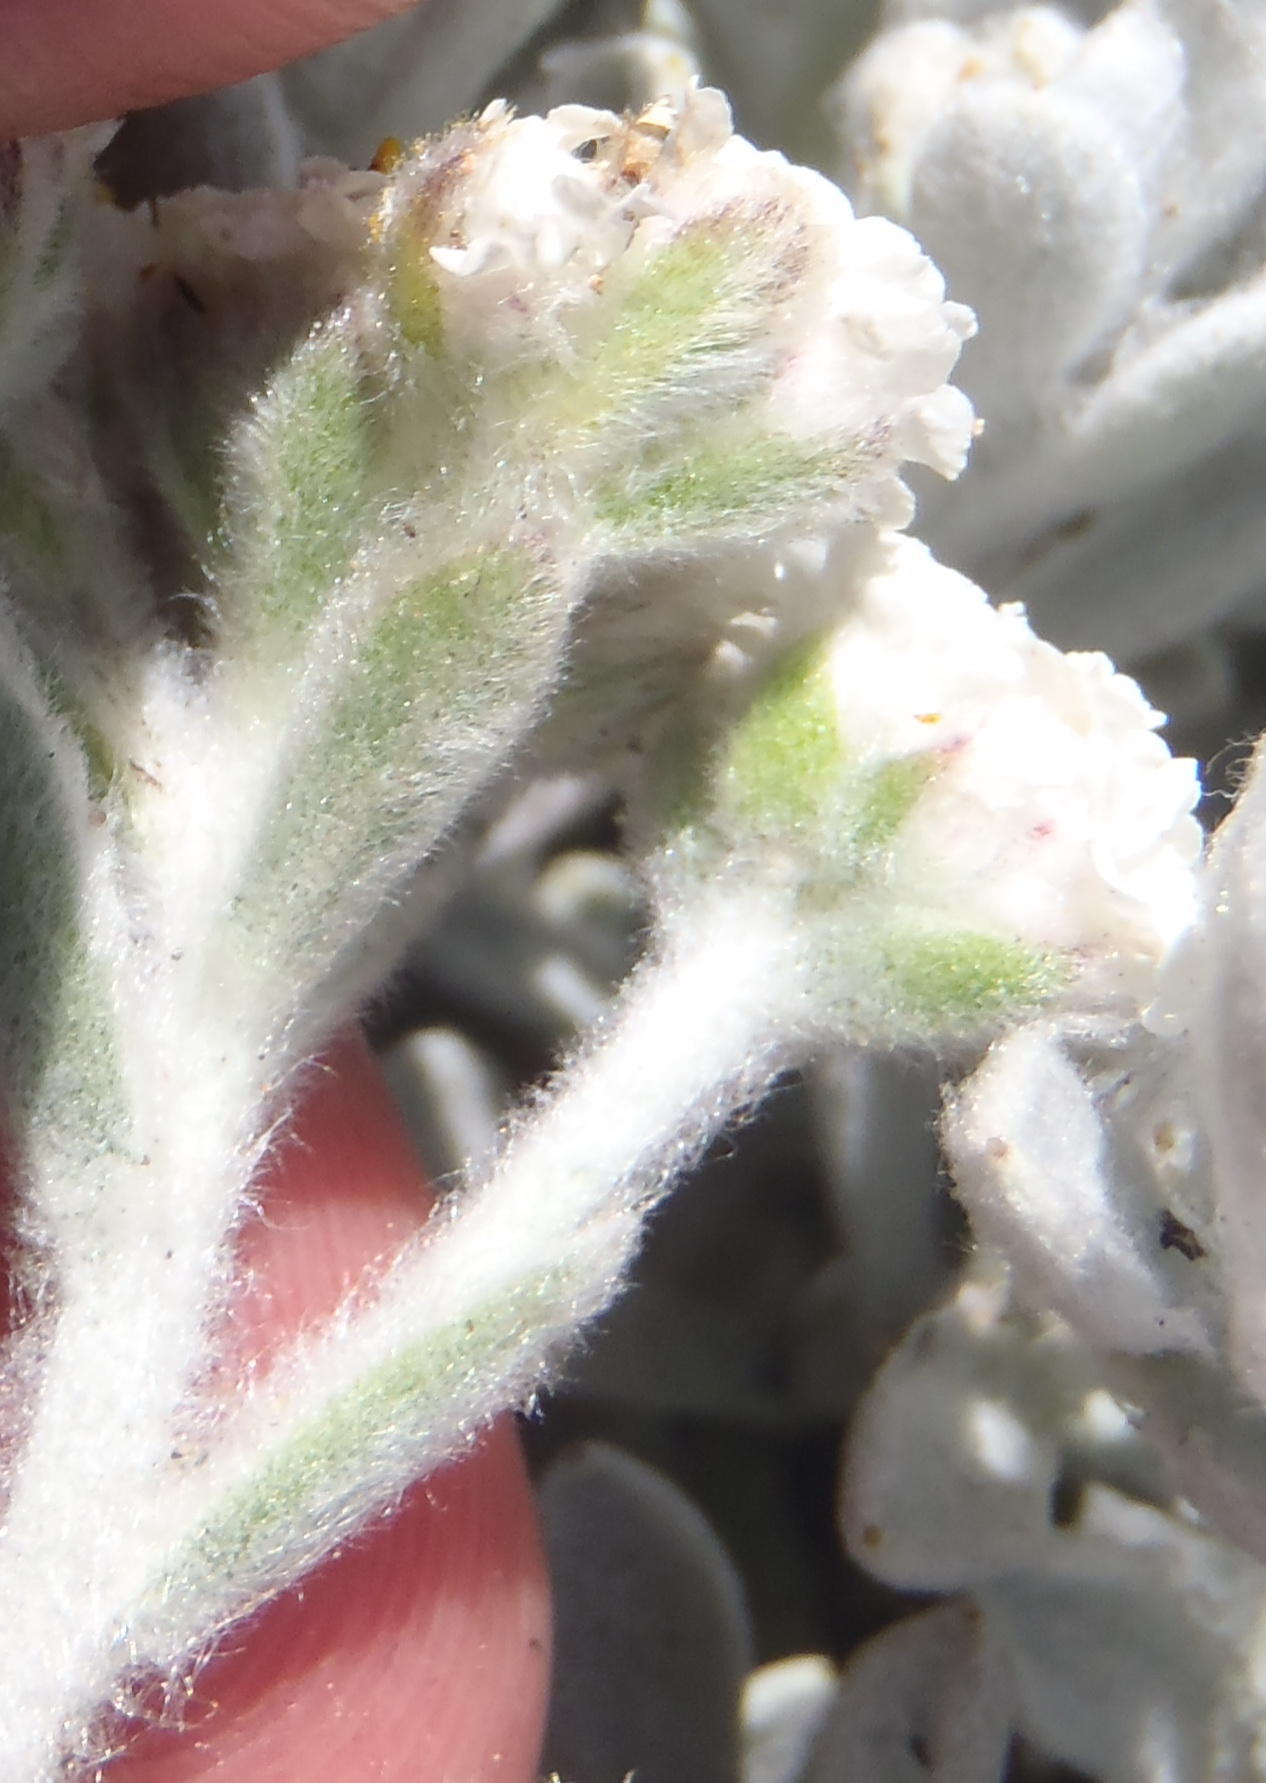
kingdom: Plantae
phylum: Tracheophyta
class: Magnoliopsida
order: Asterales
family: Asteraceae
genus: Petalacte
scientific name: Petalacte coronata
